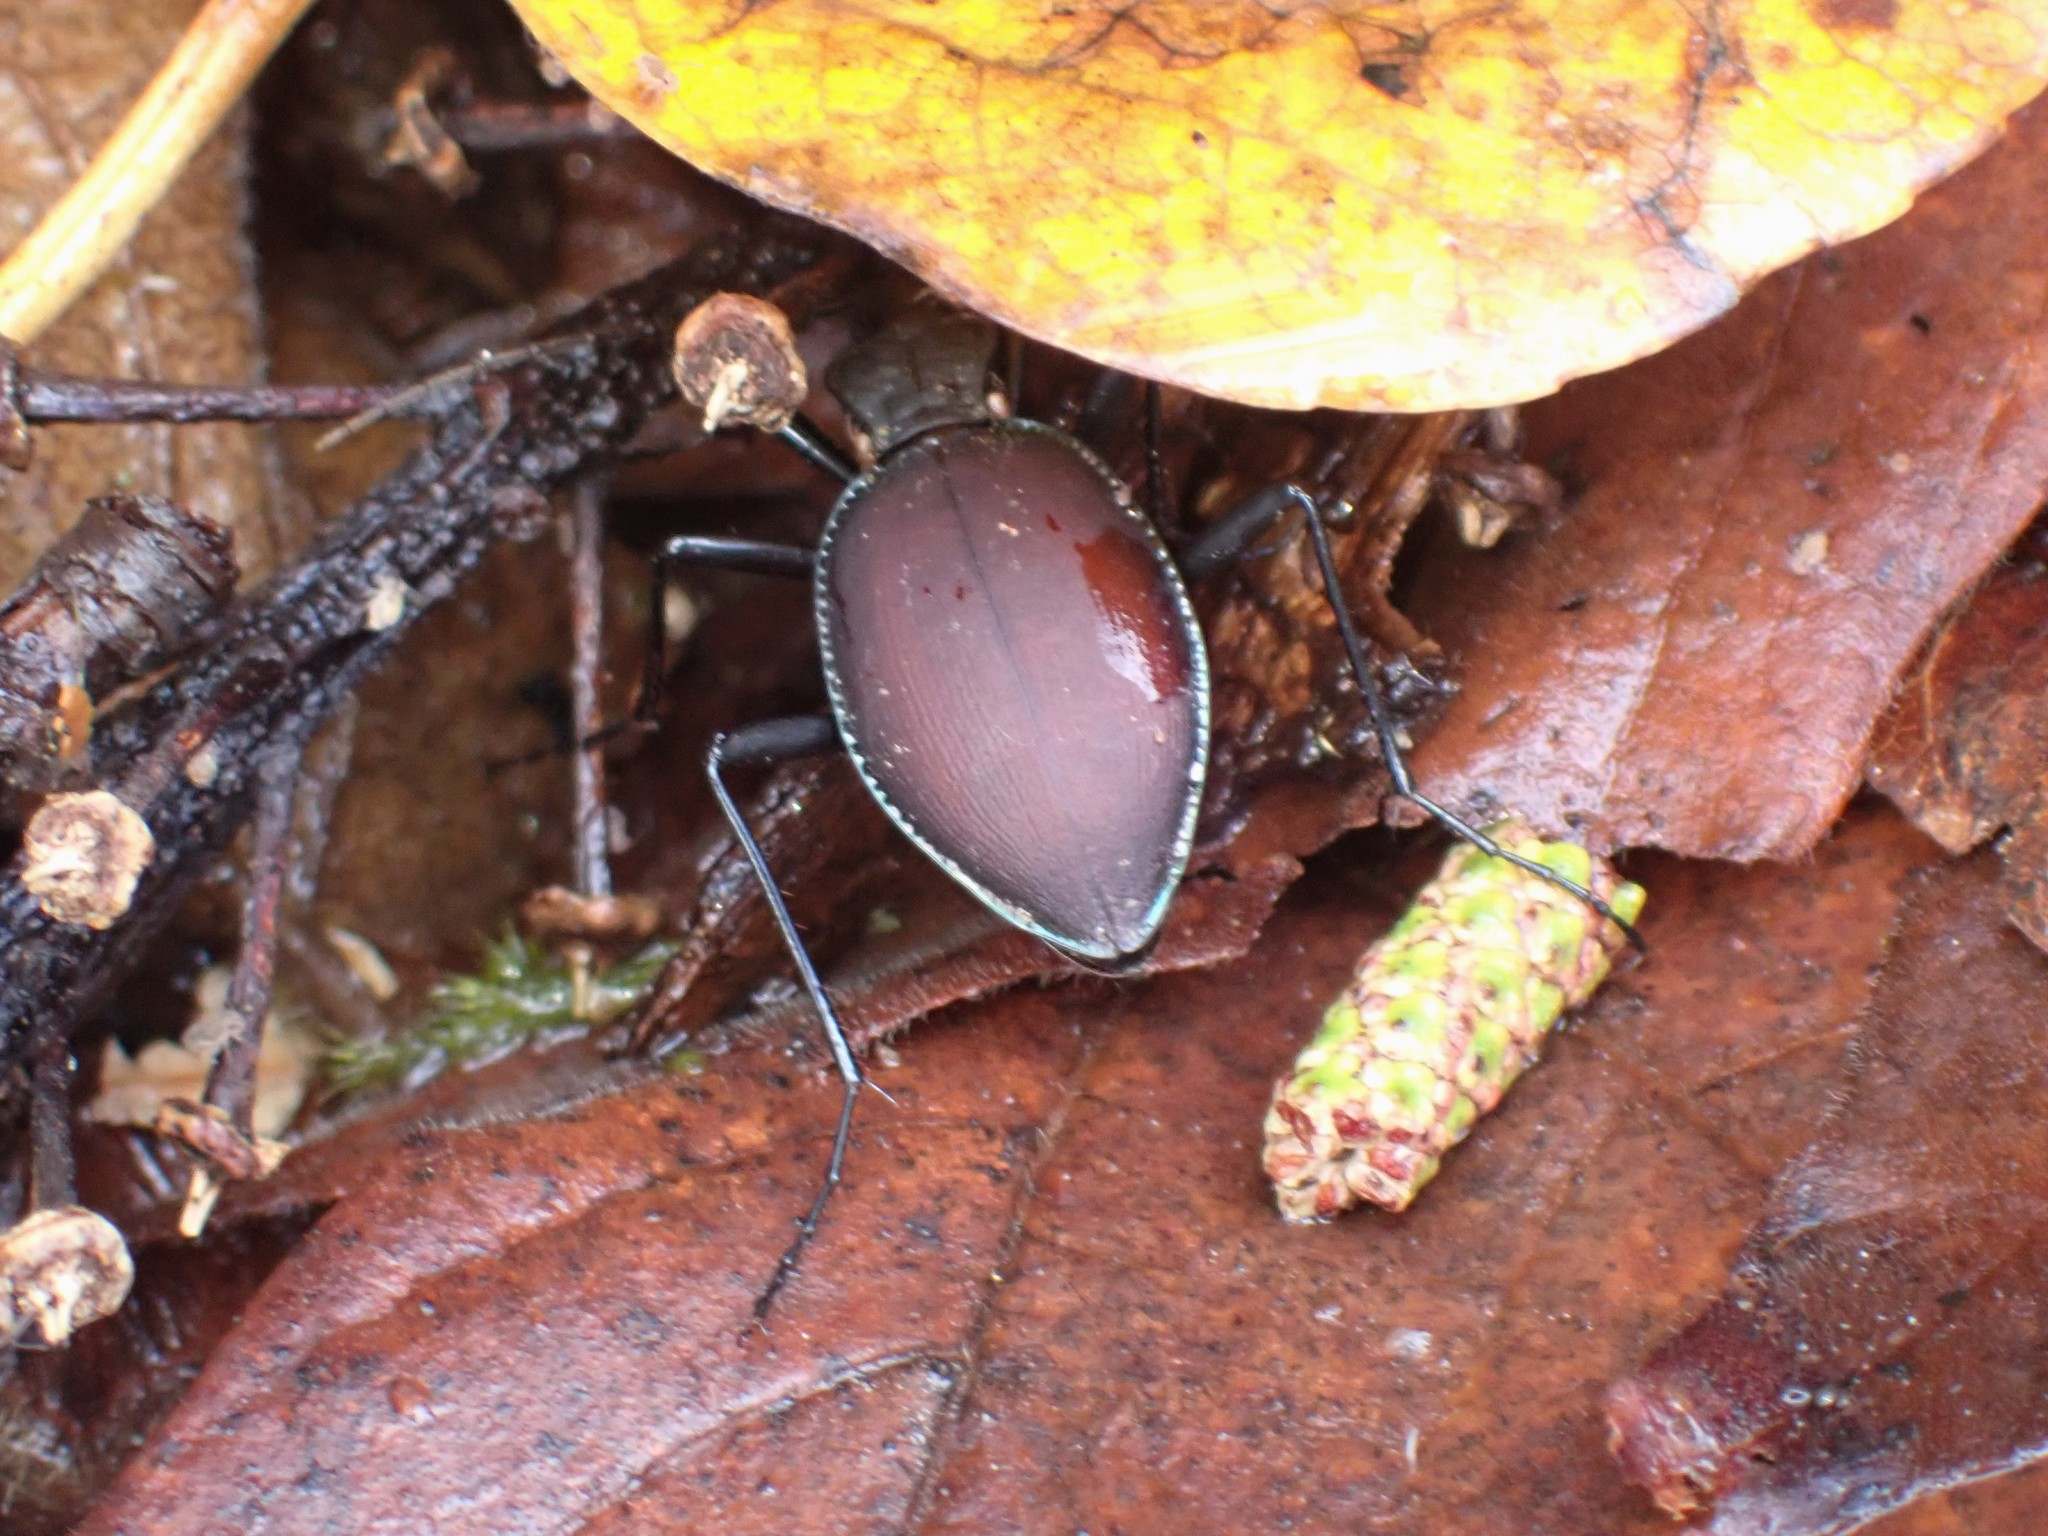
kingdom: Animalia
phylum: Arthropoda
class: Insecta
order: Coleoptera
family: Carabidae
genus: Scaphinotus
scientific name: Scaphinotus angusticollis
